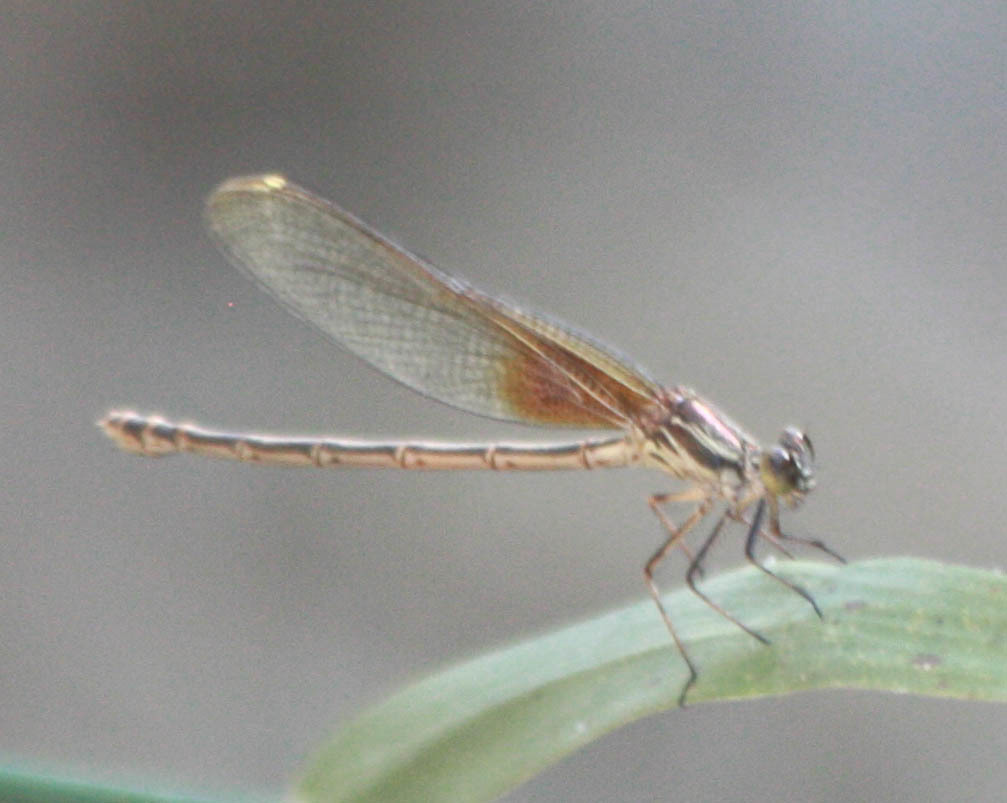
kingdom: Animalia
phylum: Arthropoda
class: Insecta
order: Odonata
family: Calopterygidae
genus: Hetaerina
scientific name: Hetaerina americana
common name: American rubyspot
